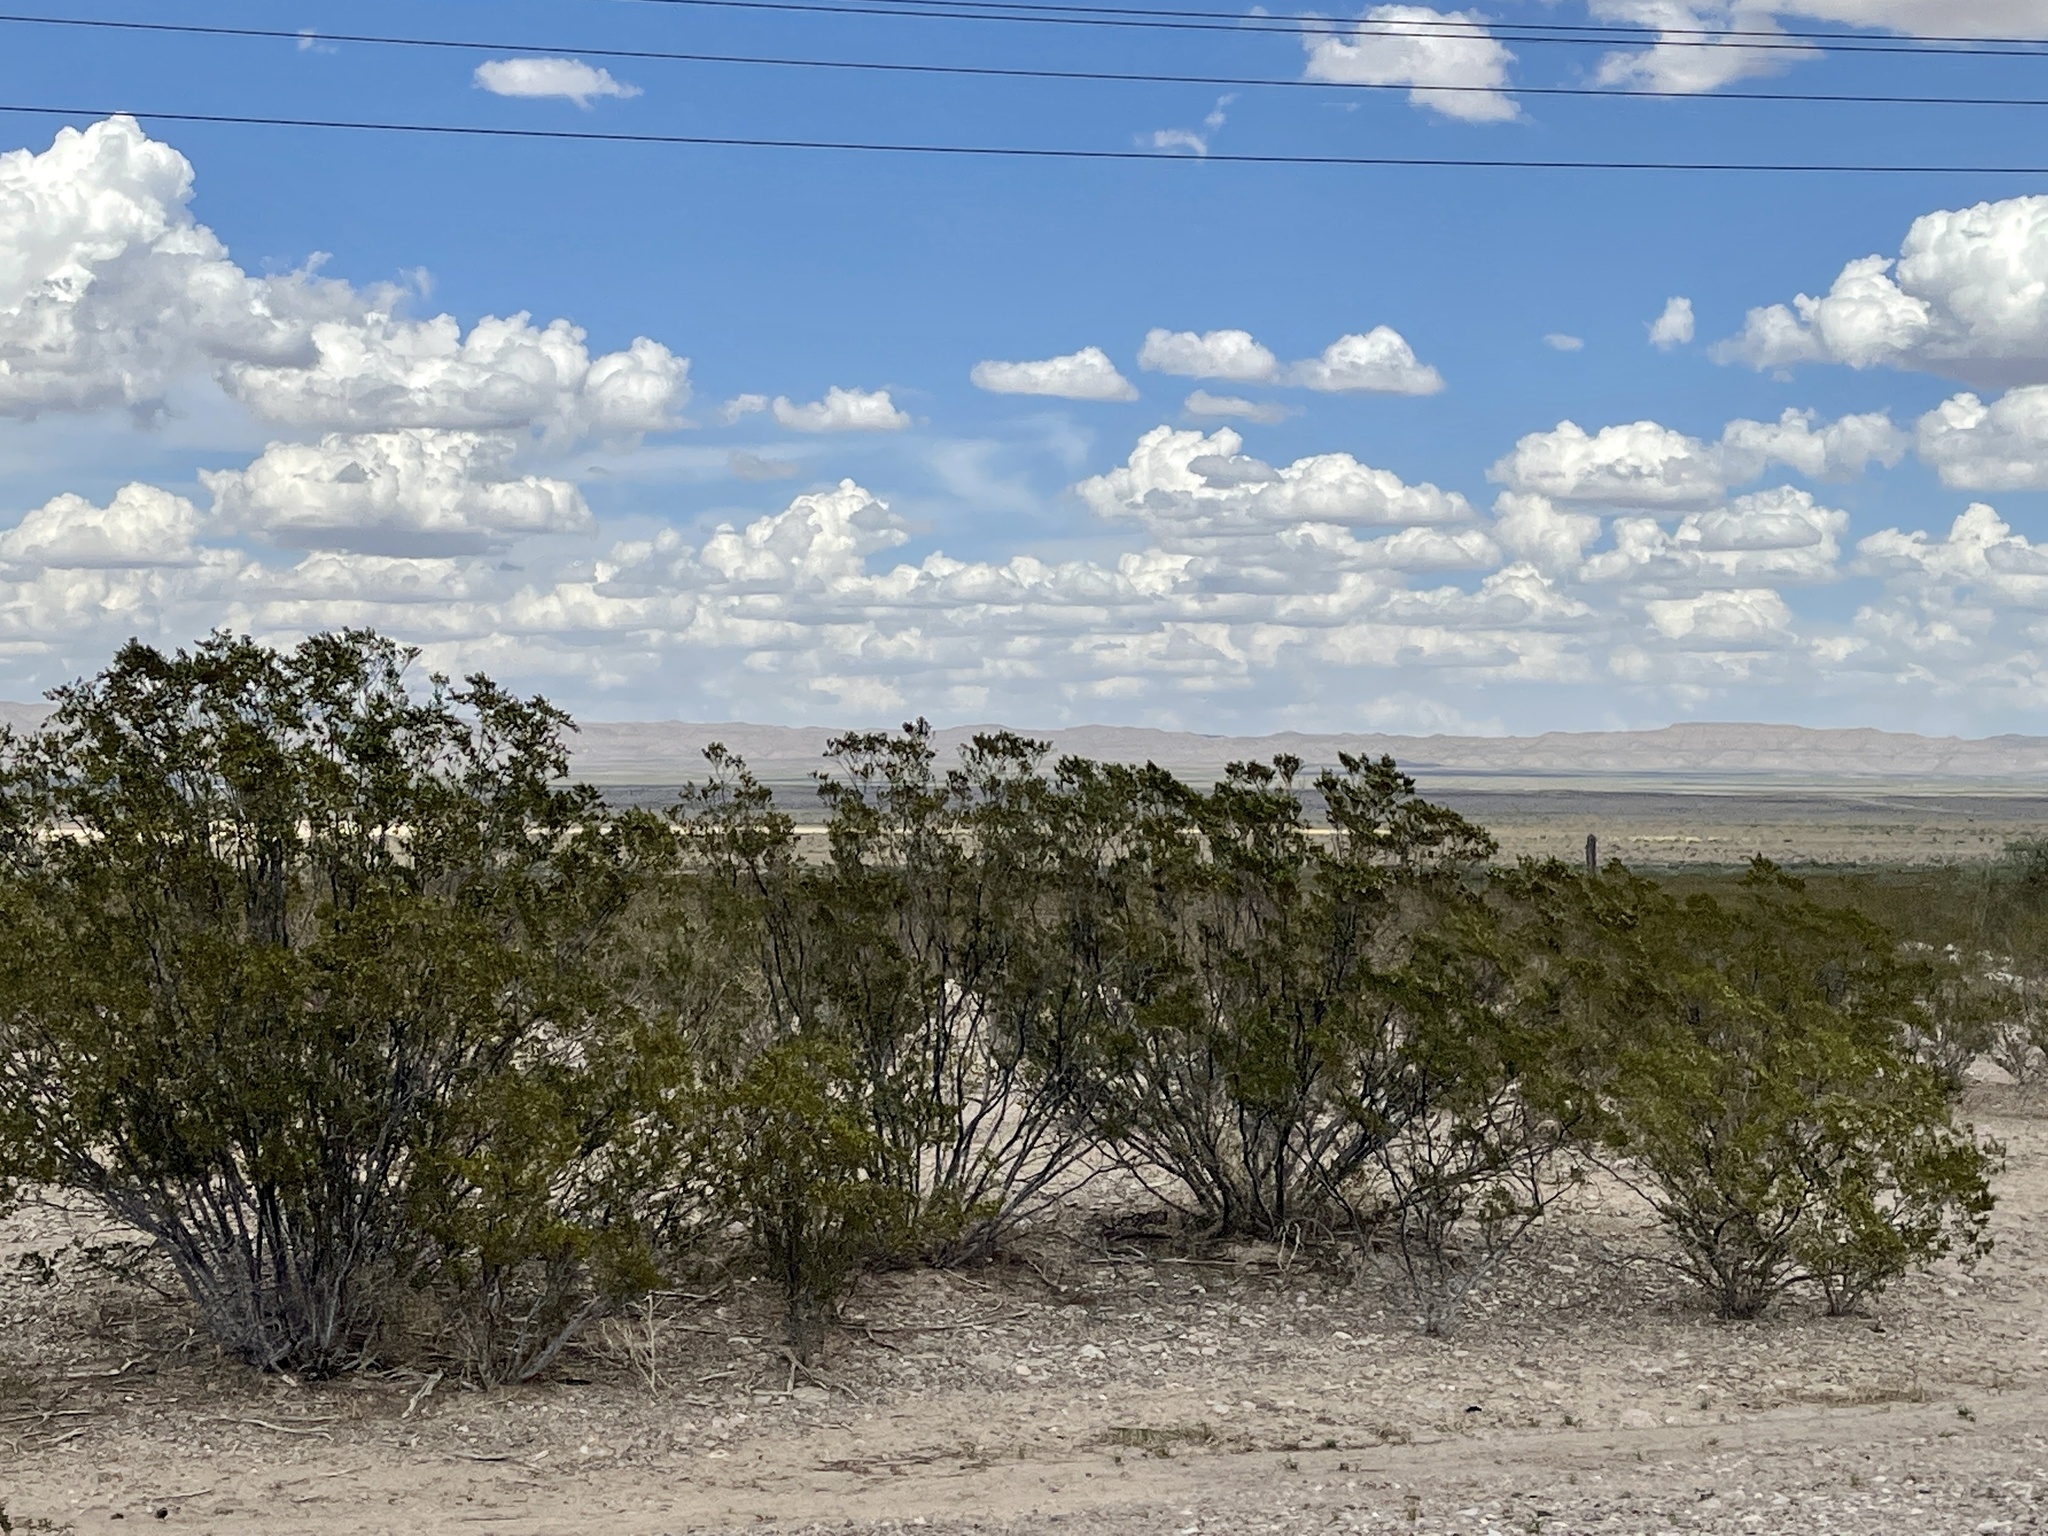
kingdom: Plantae
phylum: Tracheophyta
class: Magnoliopsida
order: Zygophyllales
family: Zygophyllaceae
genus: Larrea
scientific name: Larrea tridentata
